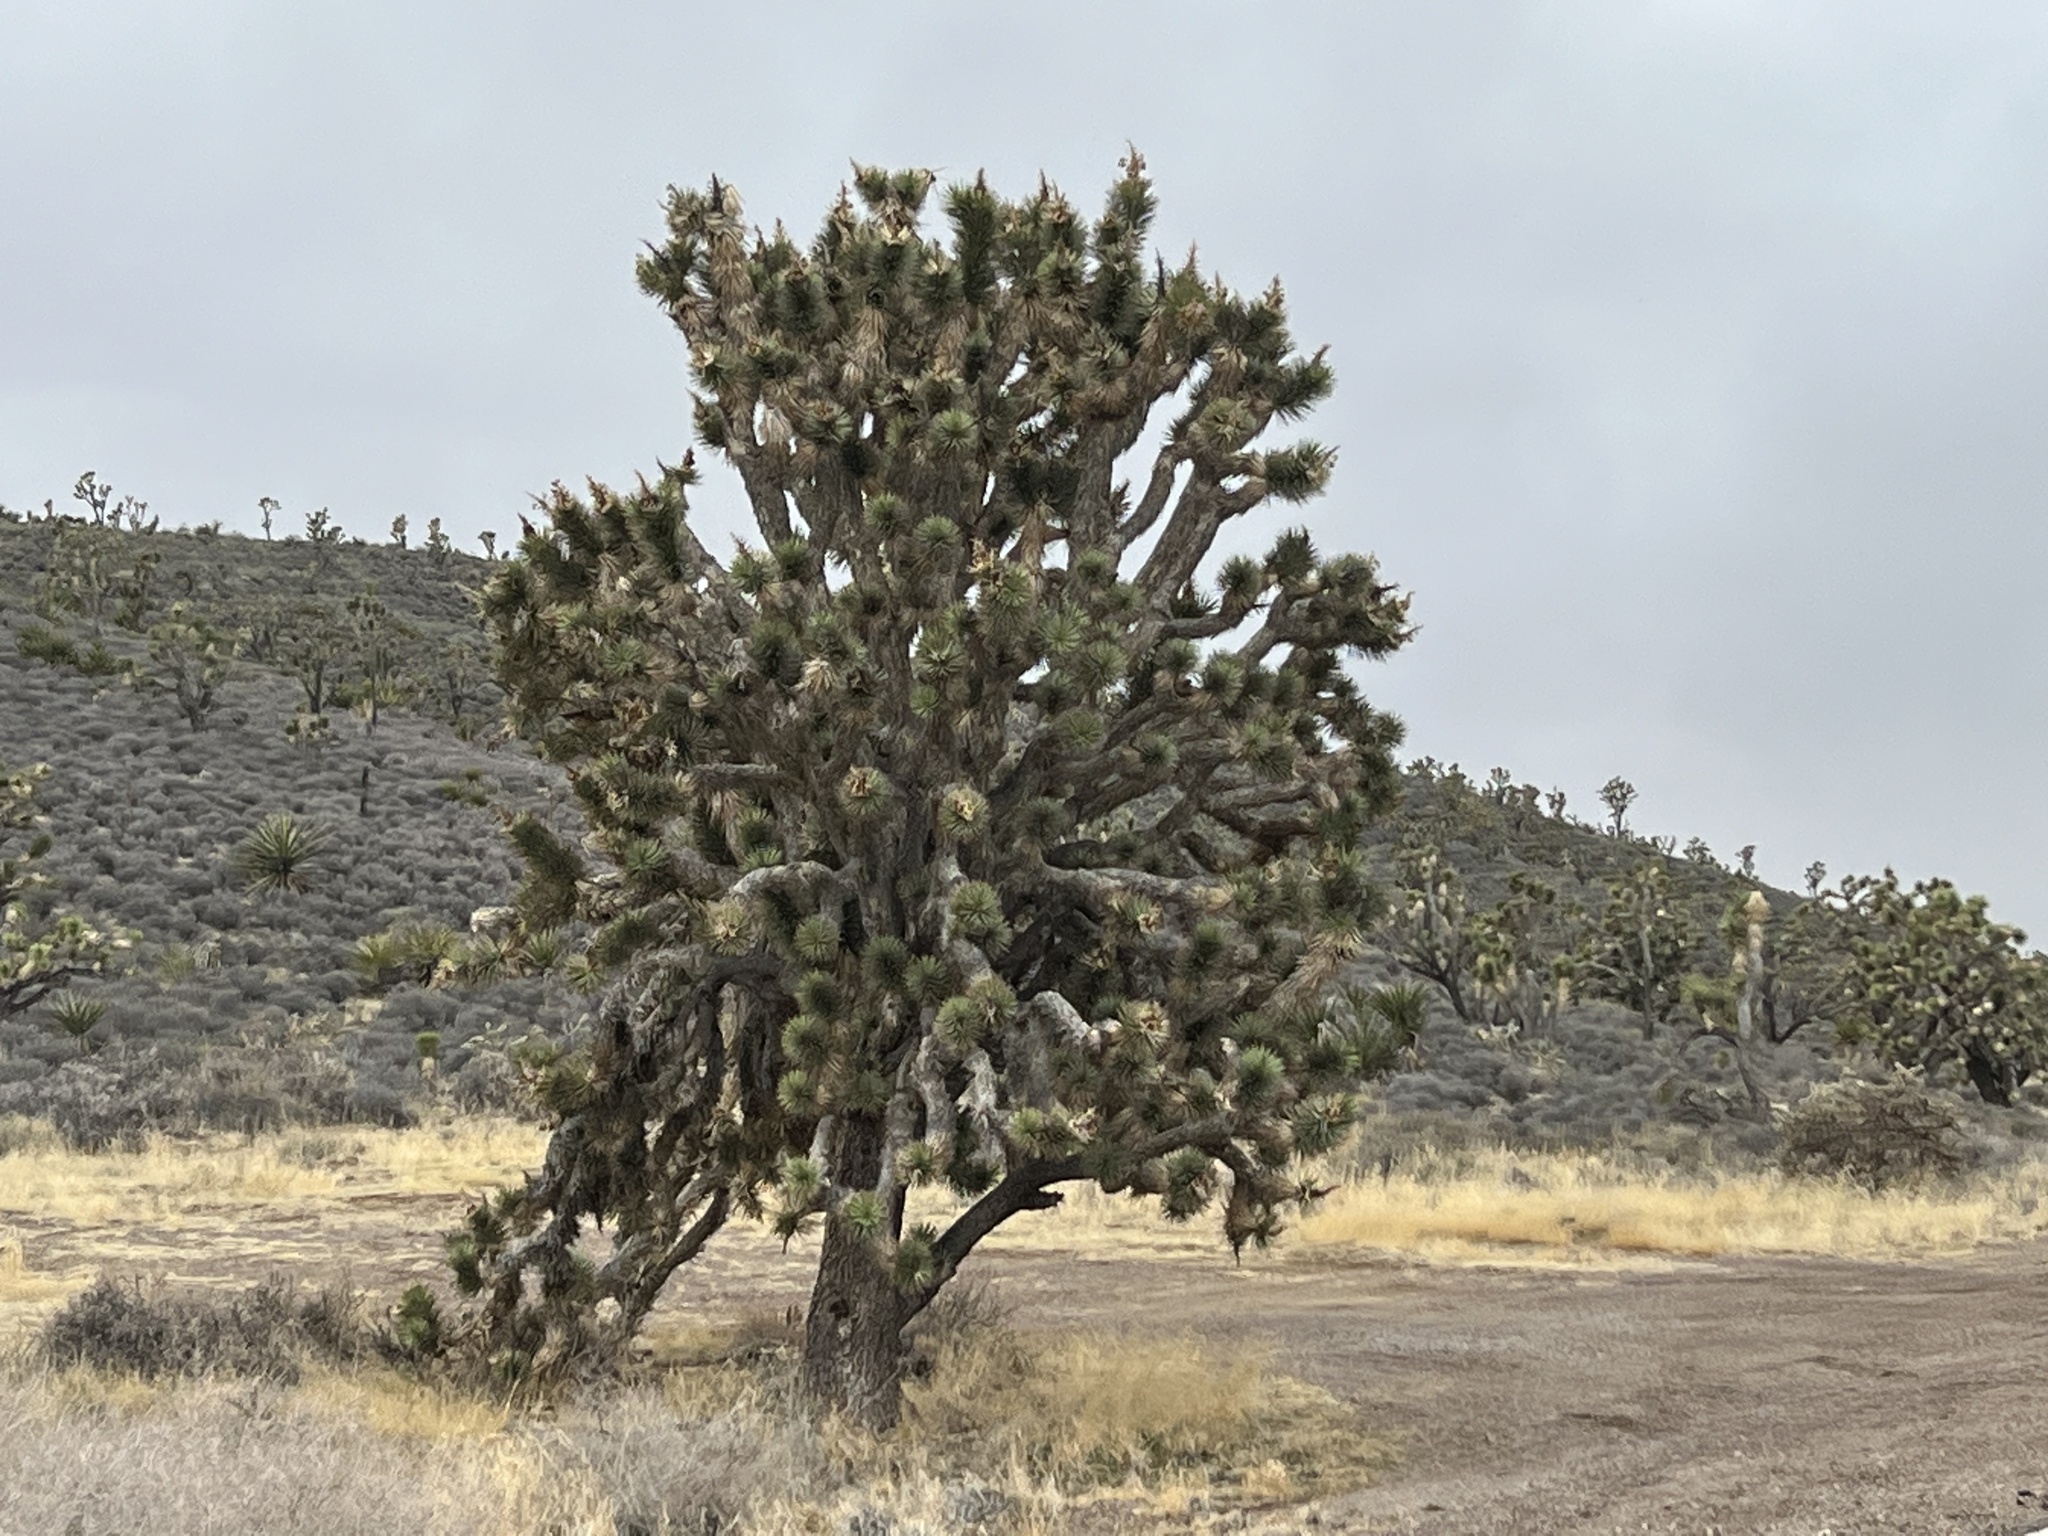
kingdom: Plantae
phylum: Tracheophyta
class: Liliopsida
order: Asparagales
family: Asparagaceae
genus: Yucca
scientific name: Yucca brevifolia
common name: Joshua tree
